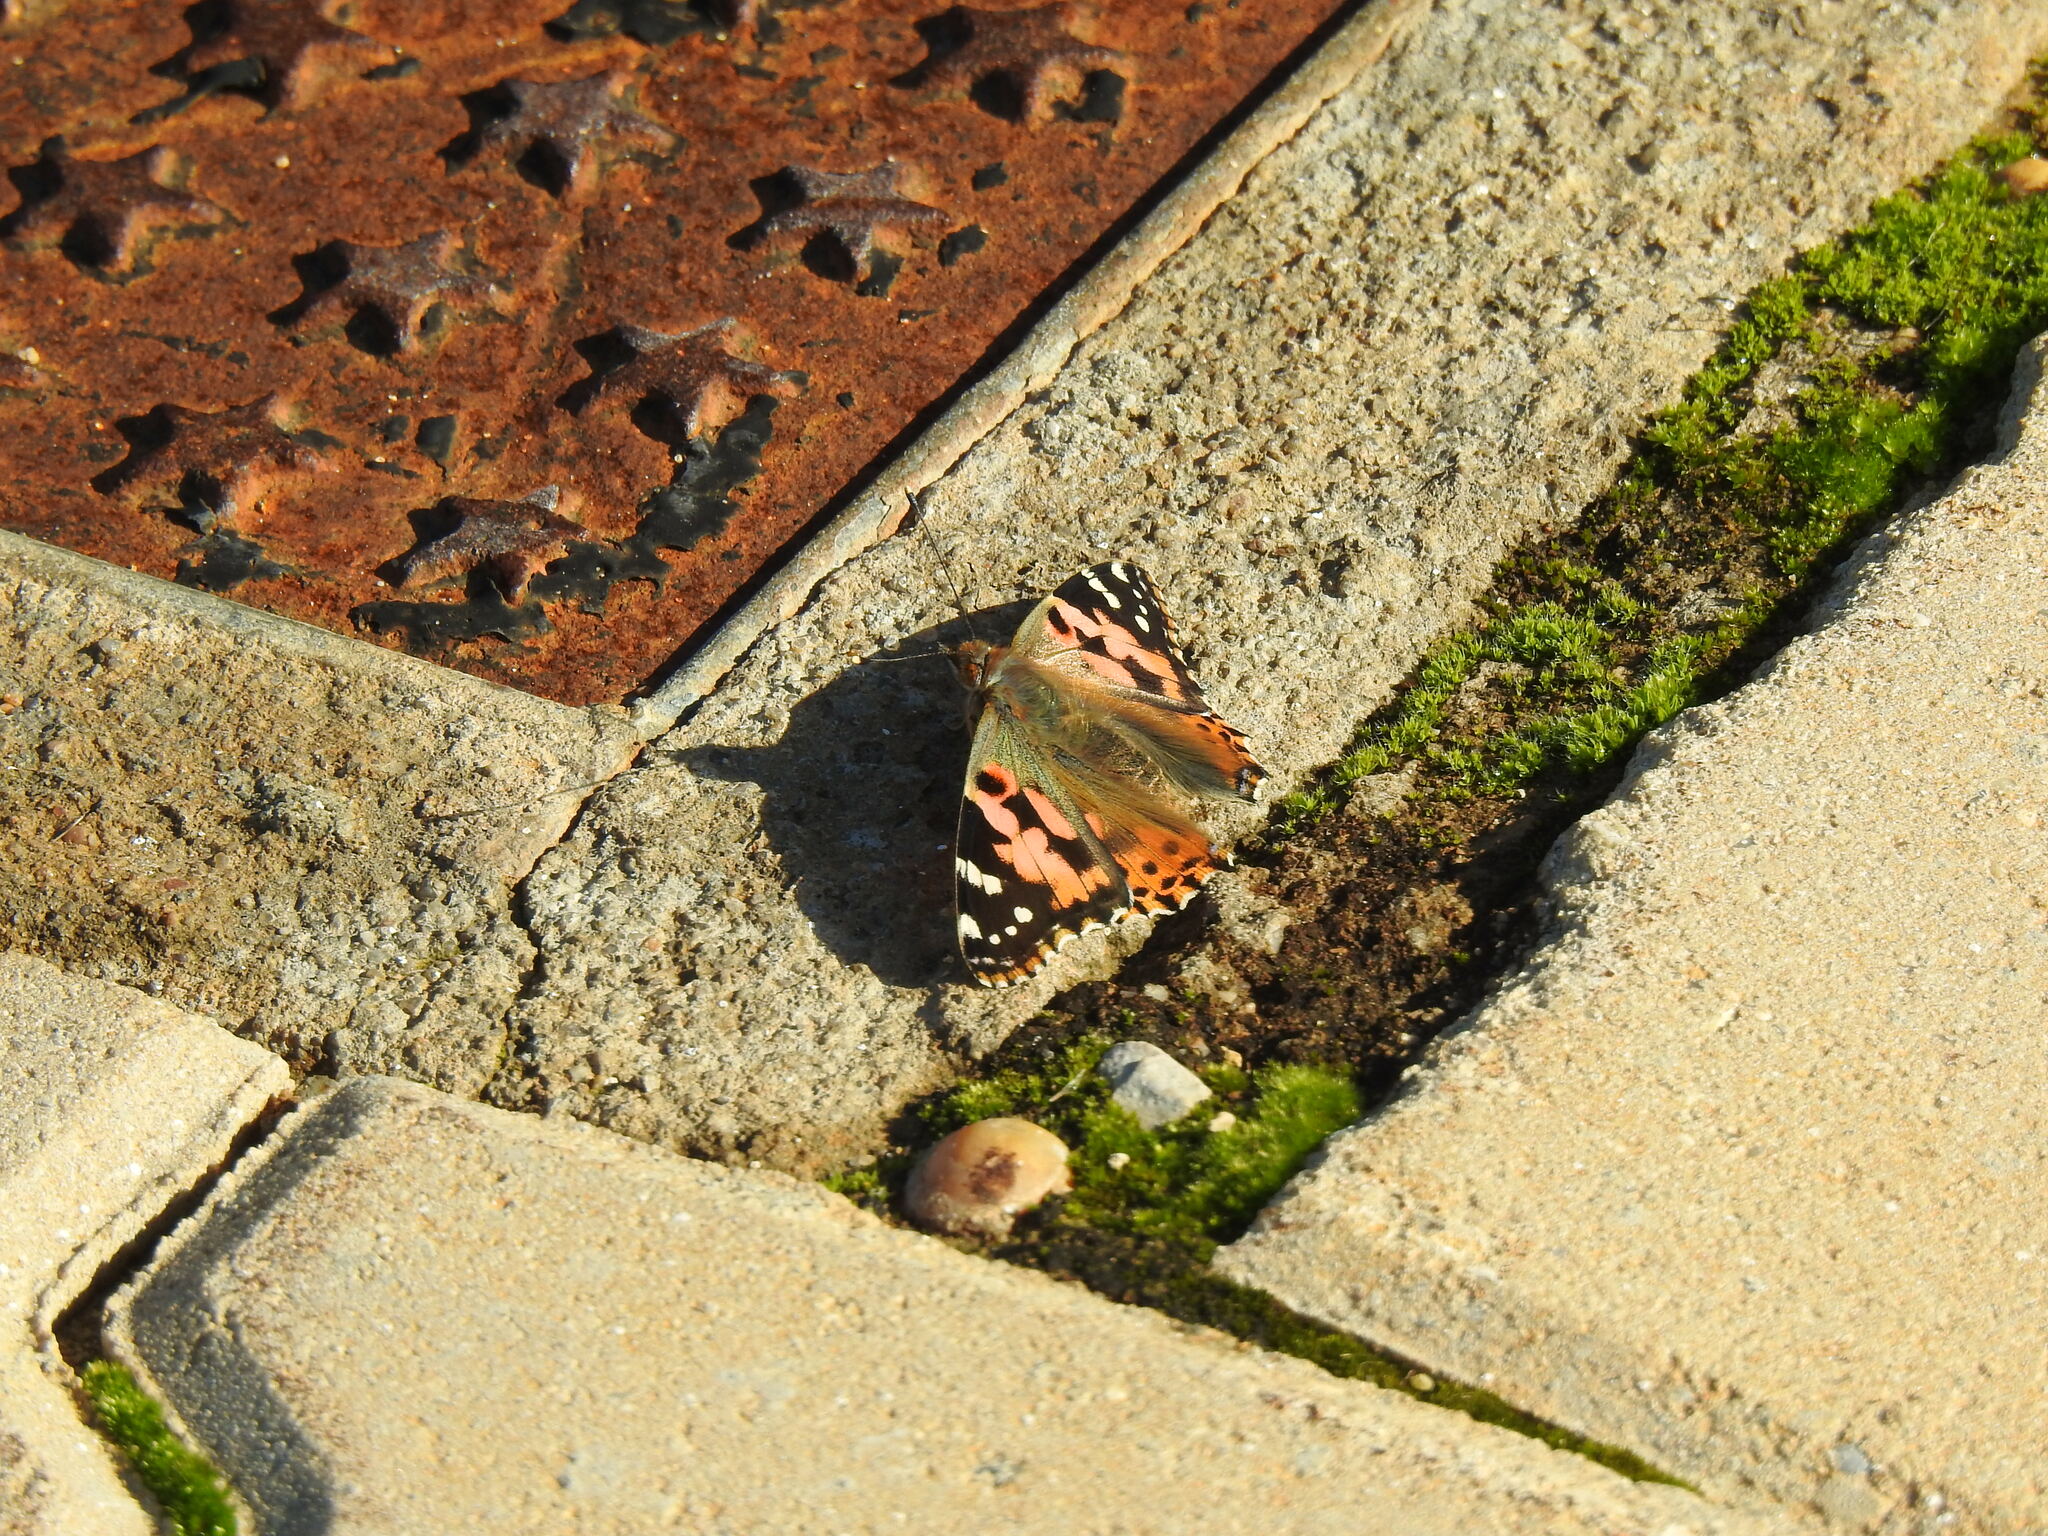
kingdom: Animalia
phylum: Arthropoda
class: Insecta
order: Lepidoptera
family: Nymphalidae
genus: Vanessa
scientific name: Vanessa cardui
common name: Painted lady
